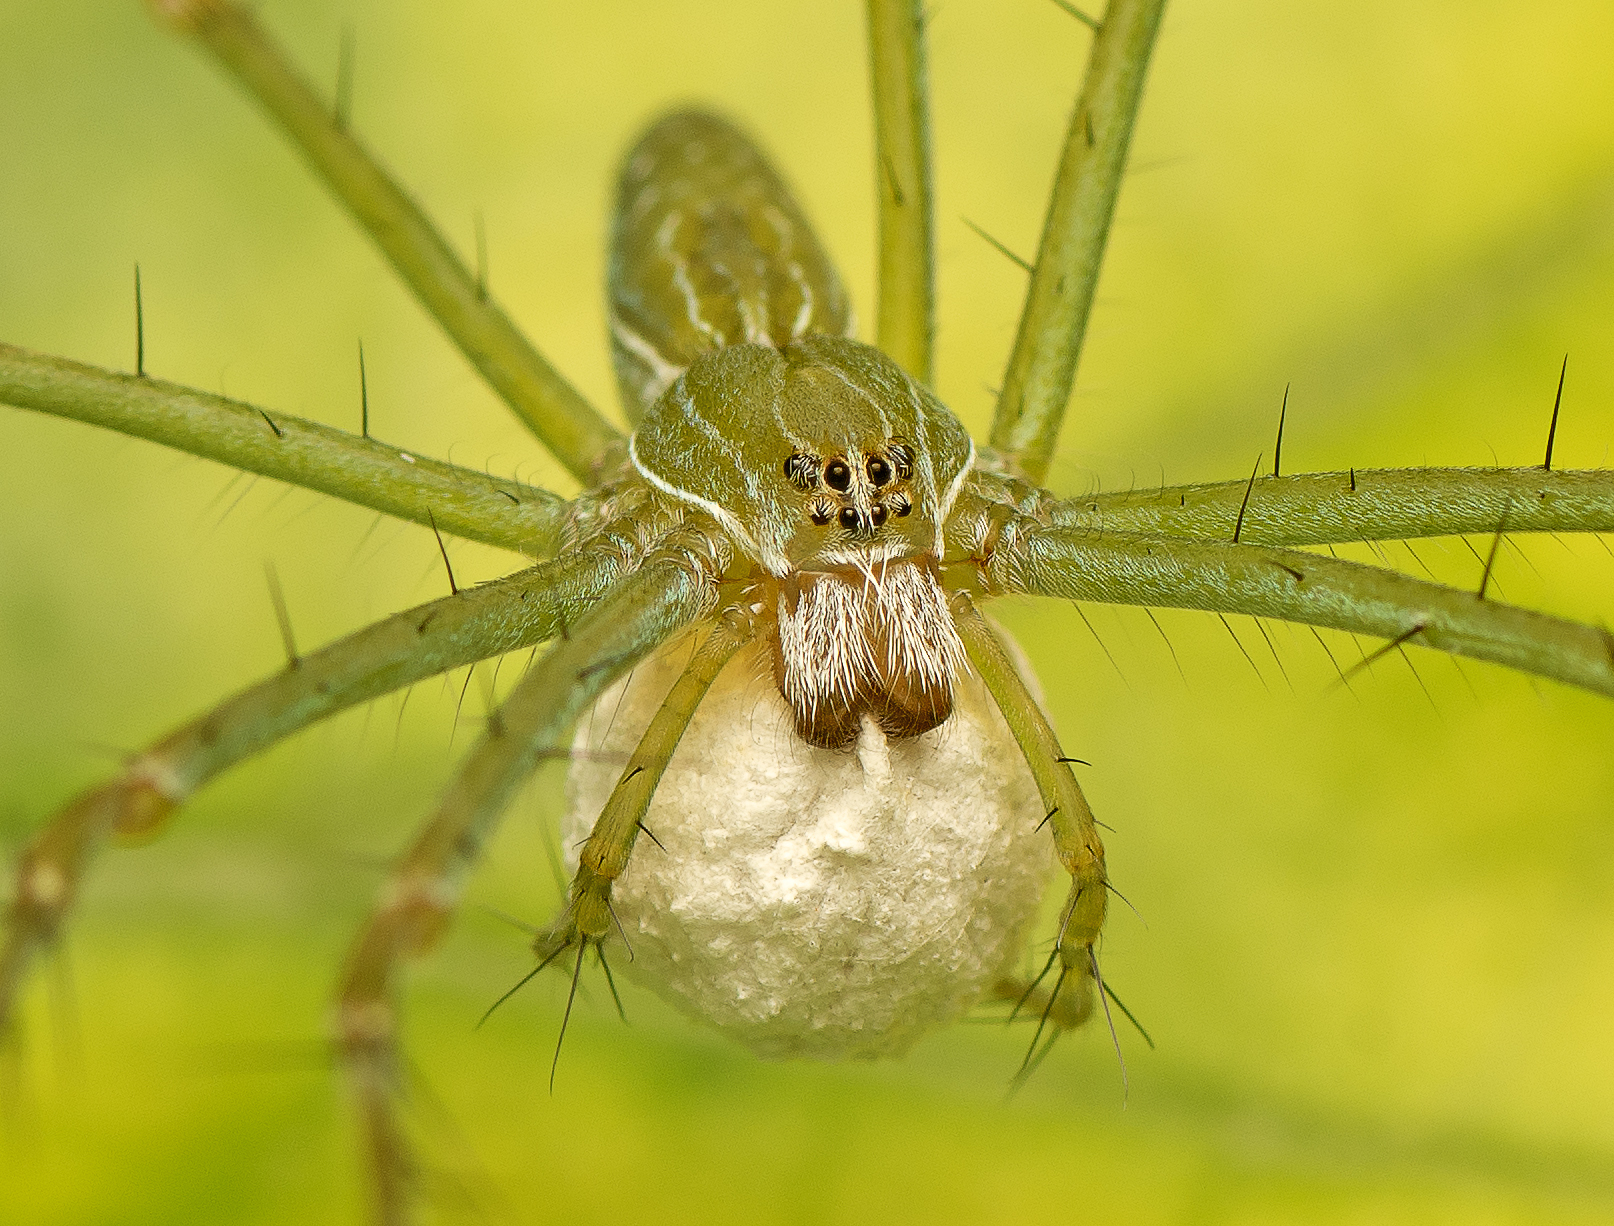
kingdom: Animalia
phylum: Arthropoda
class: Arachnida
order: Araneae
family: Pisauridae
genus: Hygropoda
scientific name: Hygropoda lineata
